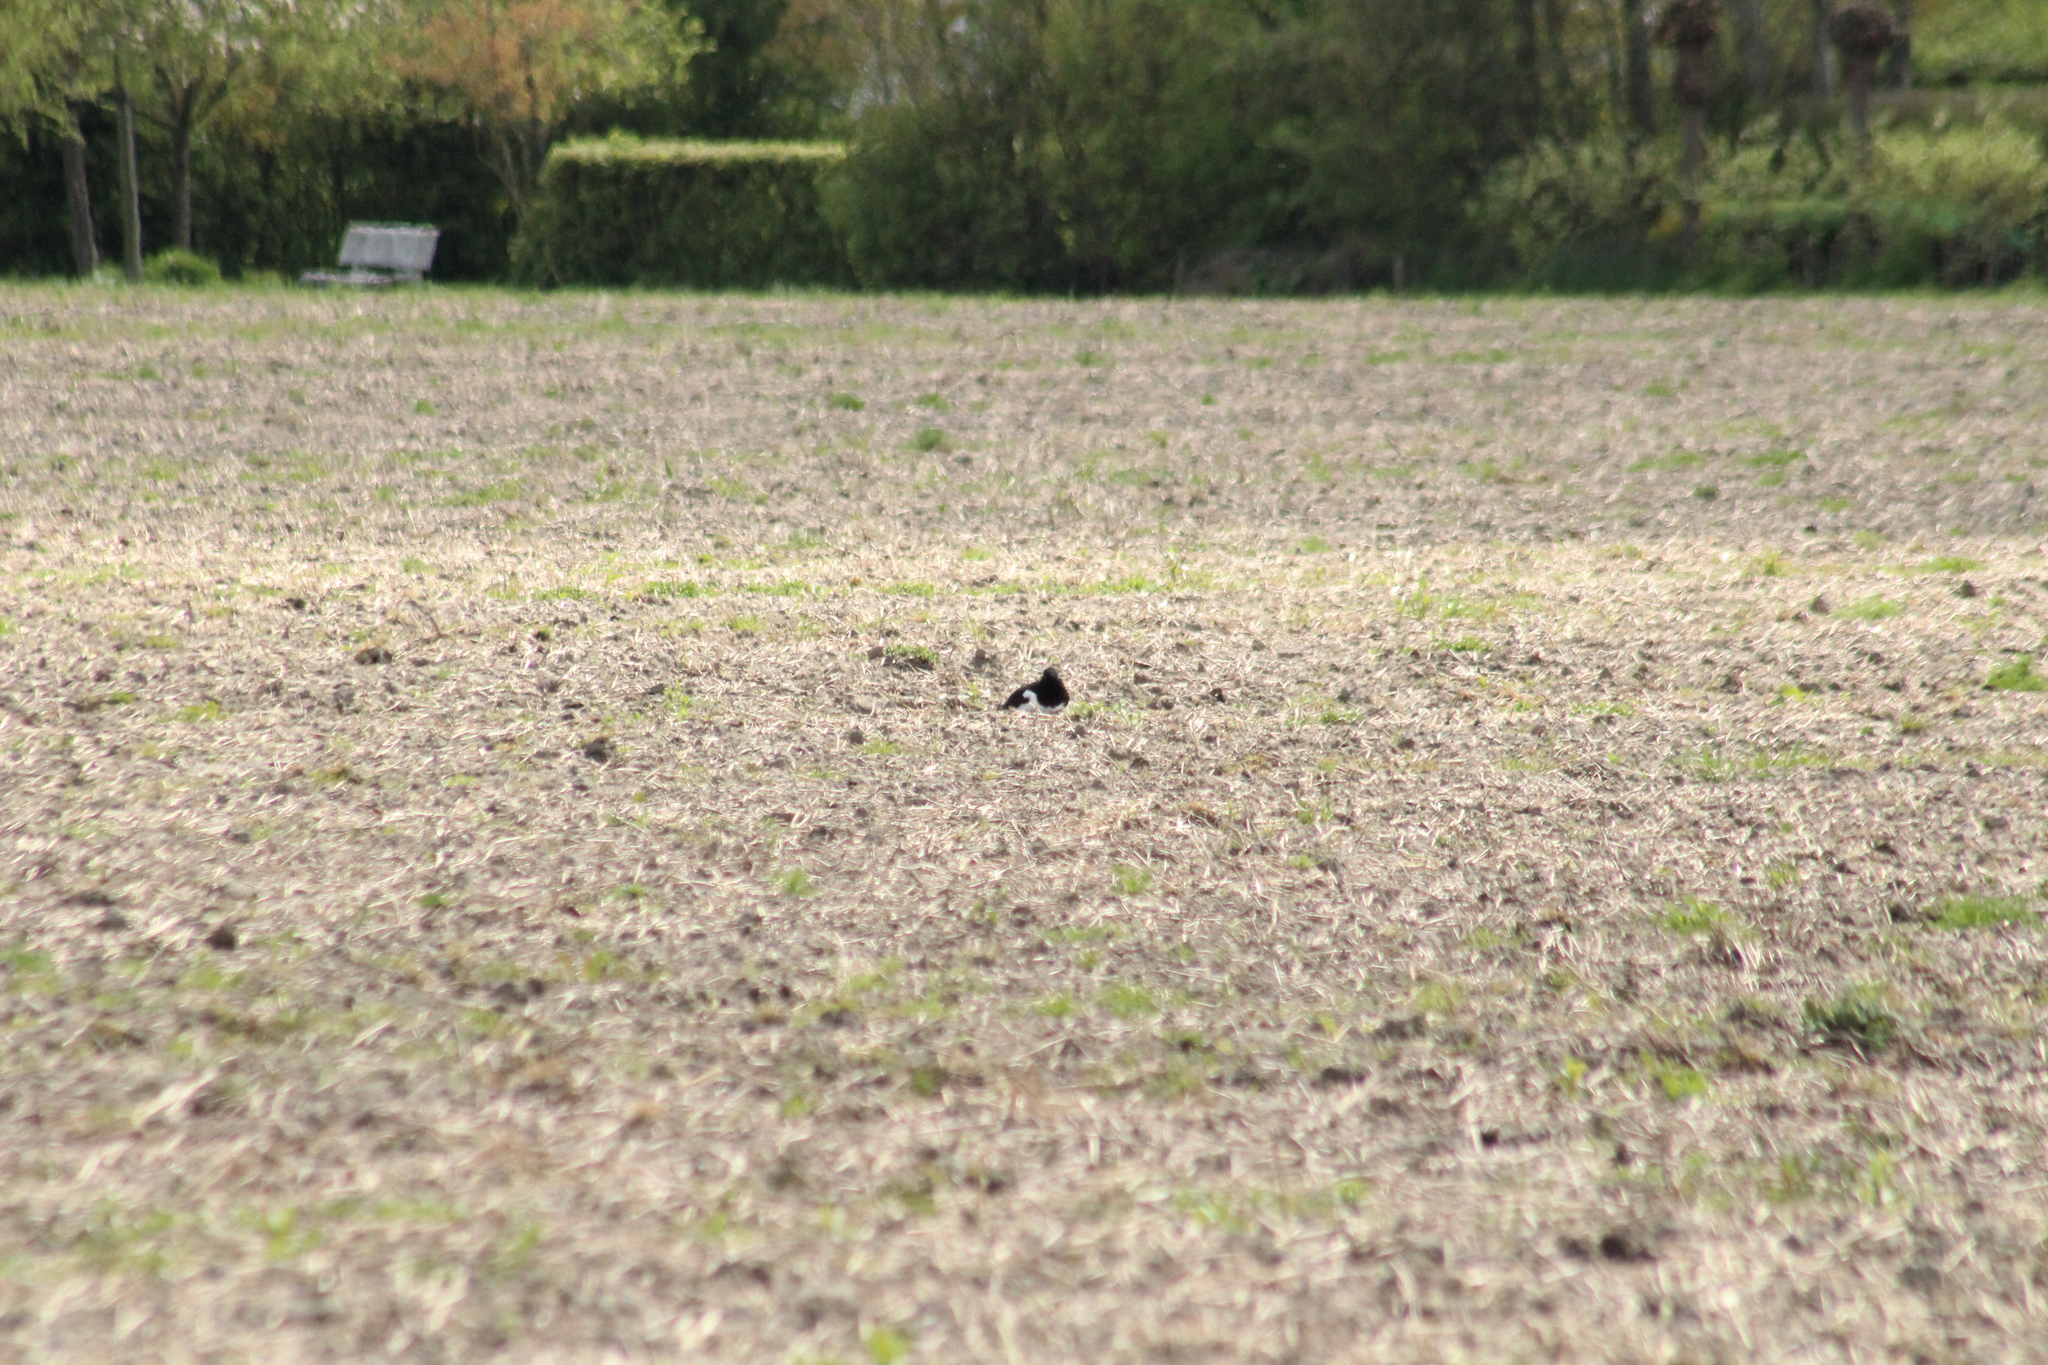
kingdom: Animalia
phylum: Chordata
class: Aves
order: Charadriiformes
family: Haematopodidae
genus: Haematopus
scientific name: Haematopus ostralegus
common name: Eurasian oystercatcher
